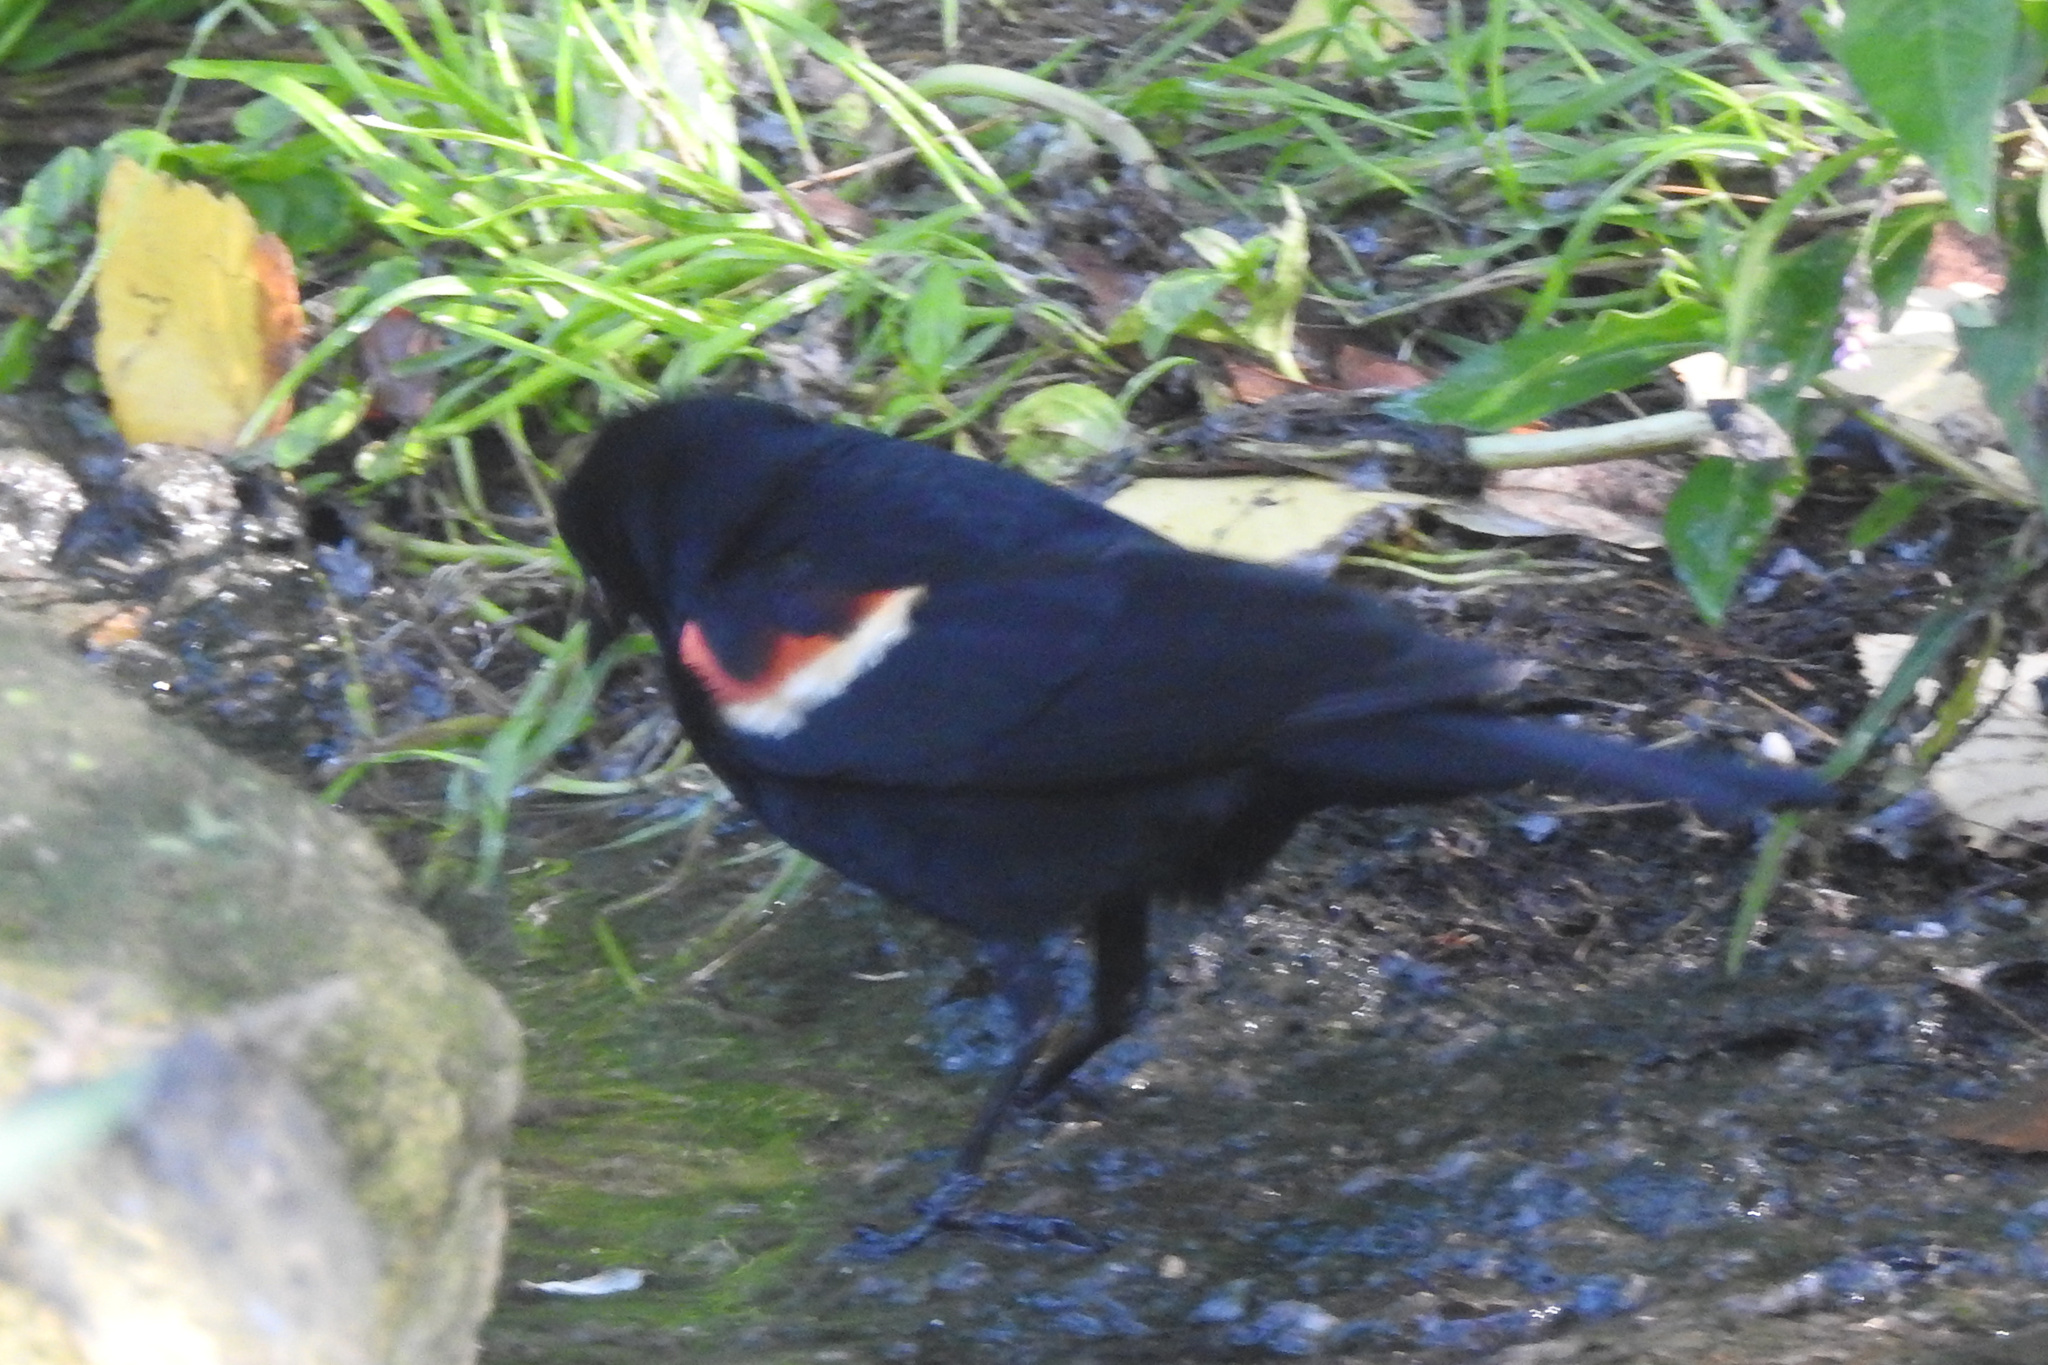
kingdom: Animalia
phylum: Chordata
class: Aves
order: Passeriformes
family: Icteridae
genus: Agelaius
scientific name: Agelaius phoeniceus
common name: Red-winged blackbird
